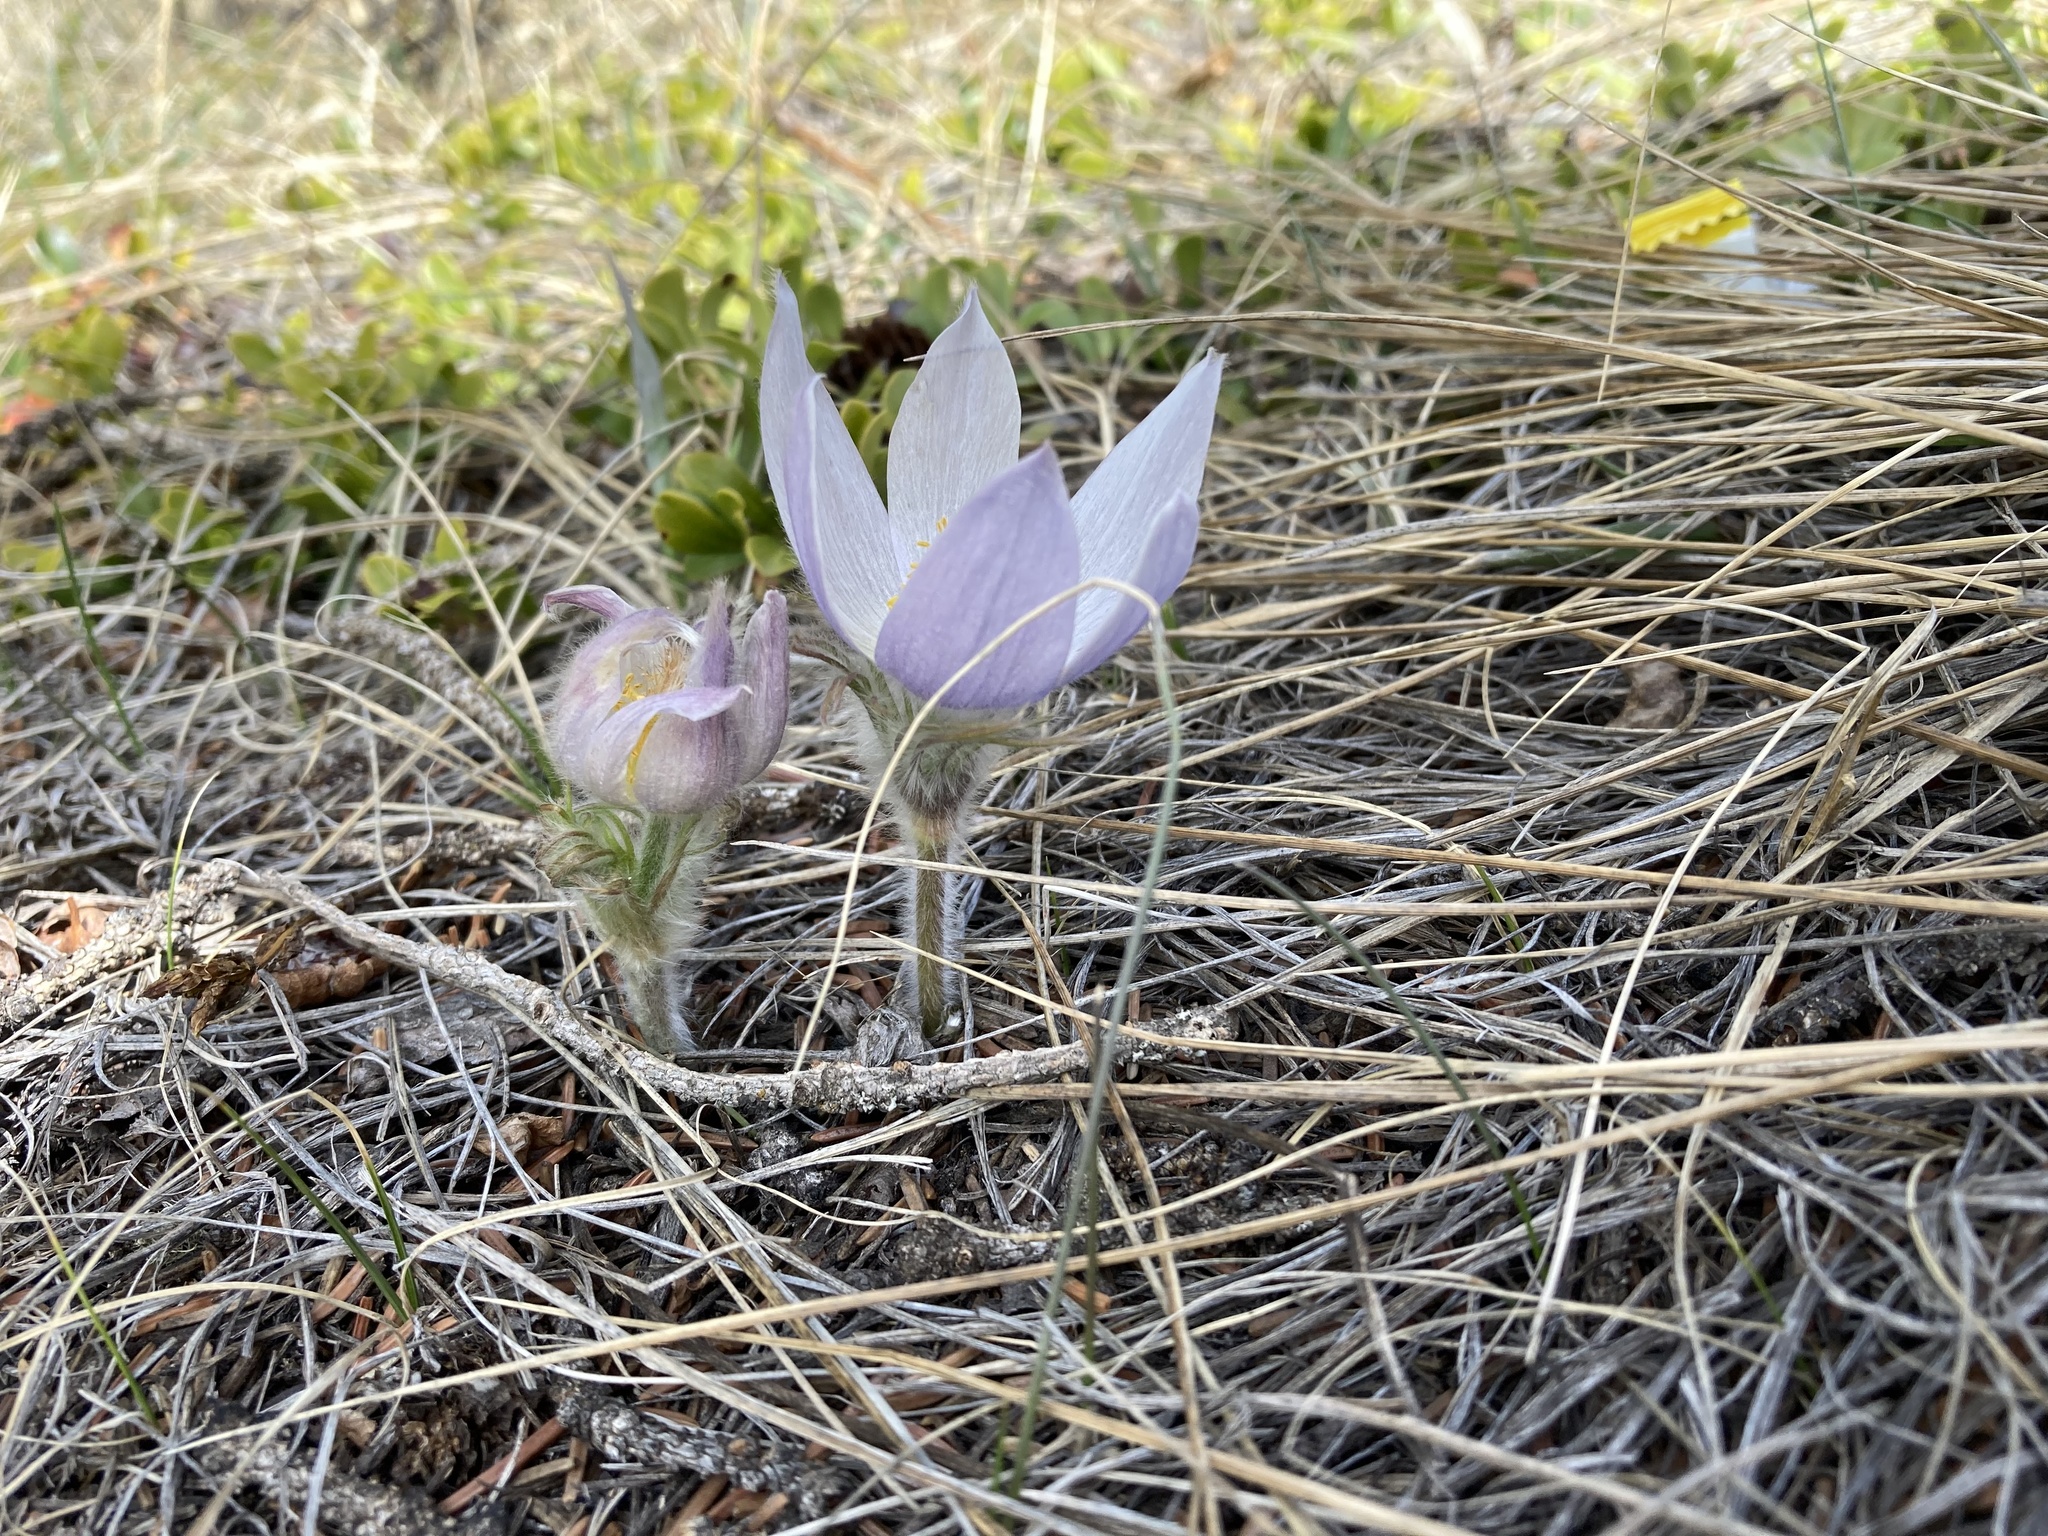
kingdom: Plantae
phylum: Tracheophyta
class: Magnoliopsida
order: Ranunculales
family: Ranunculaceae
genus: Pulsatilla
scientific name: Pulsatilla nuttalliana
